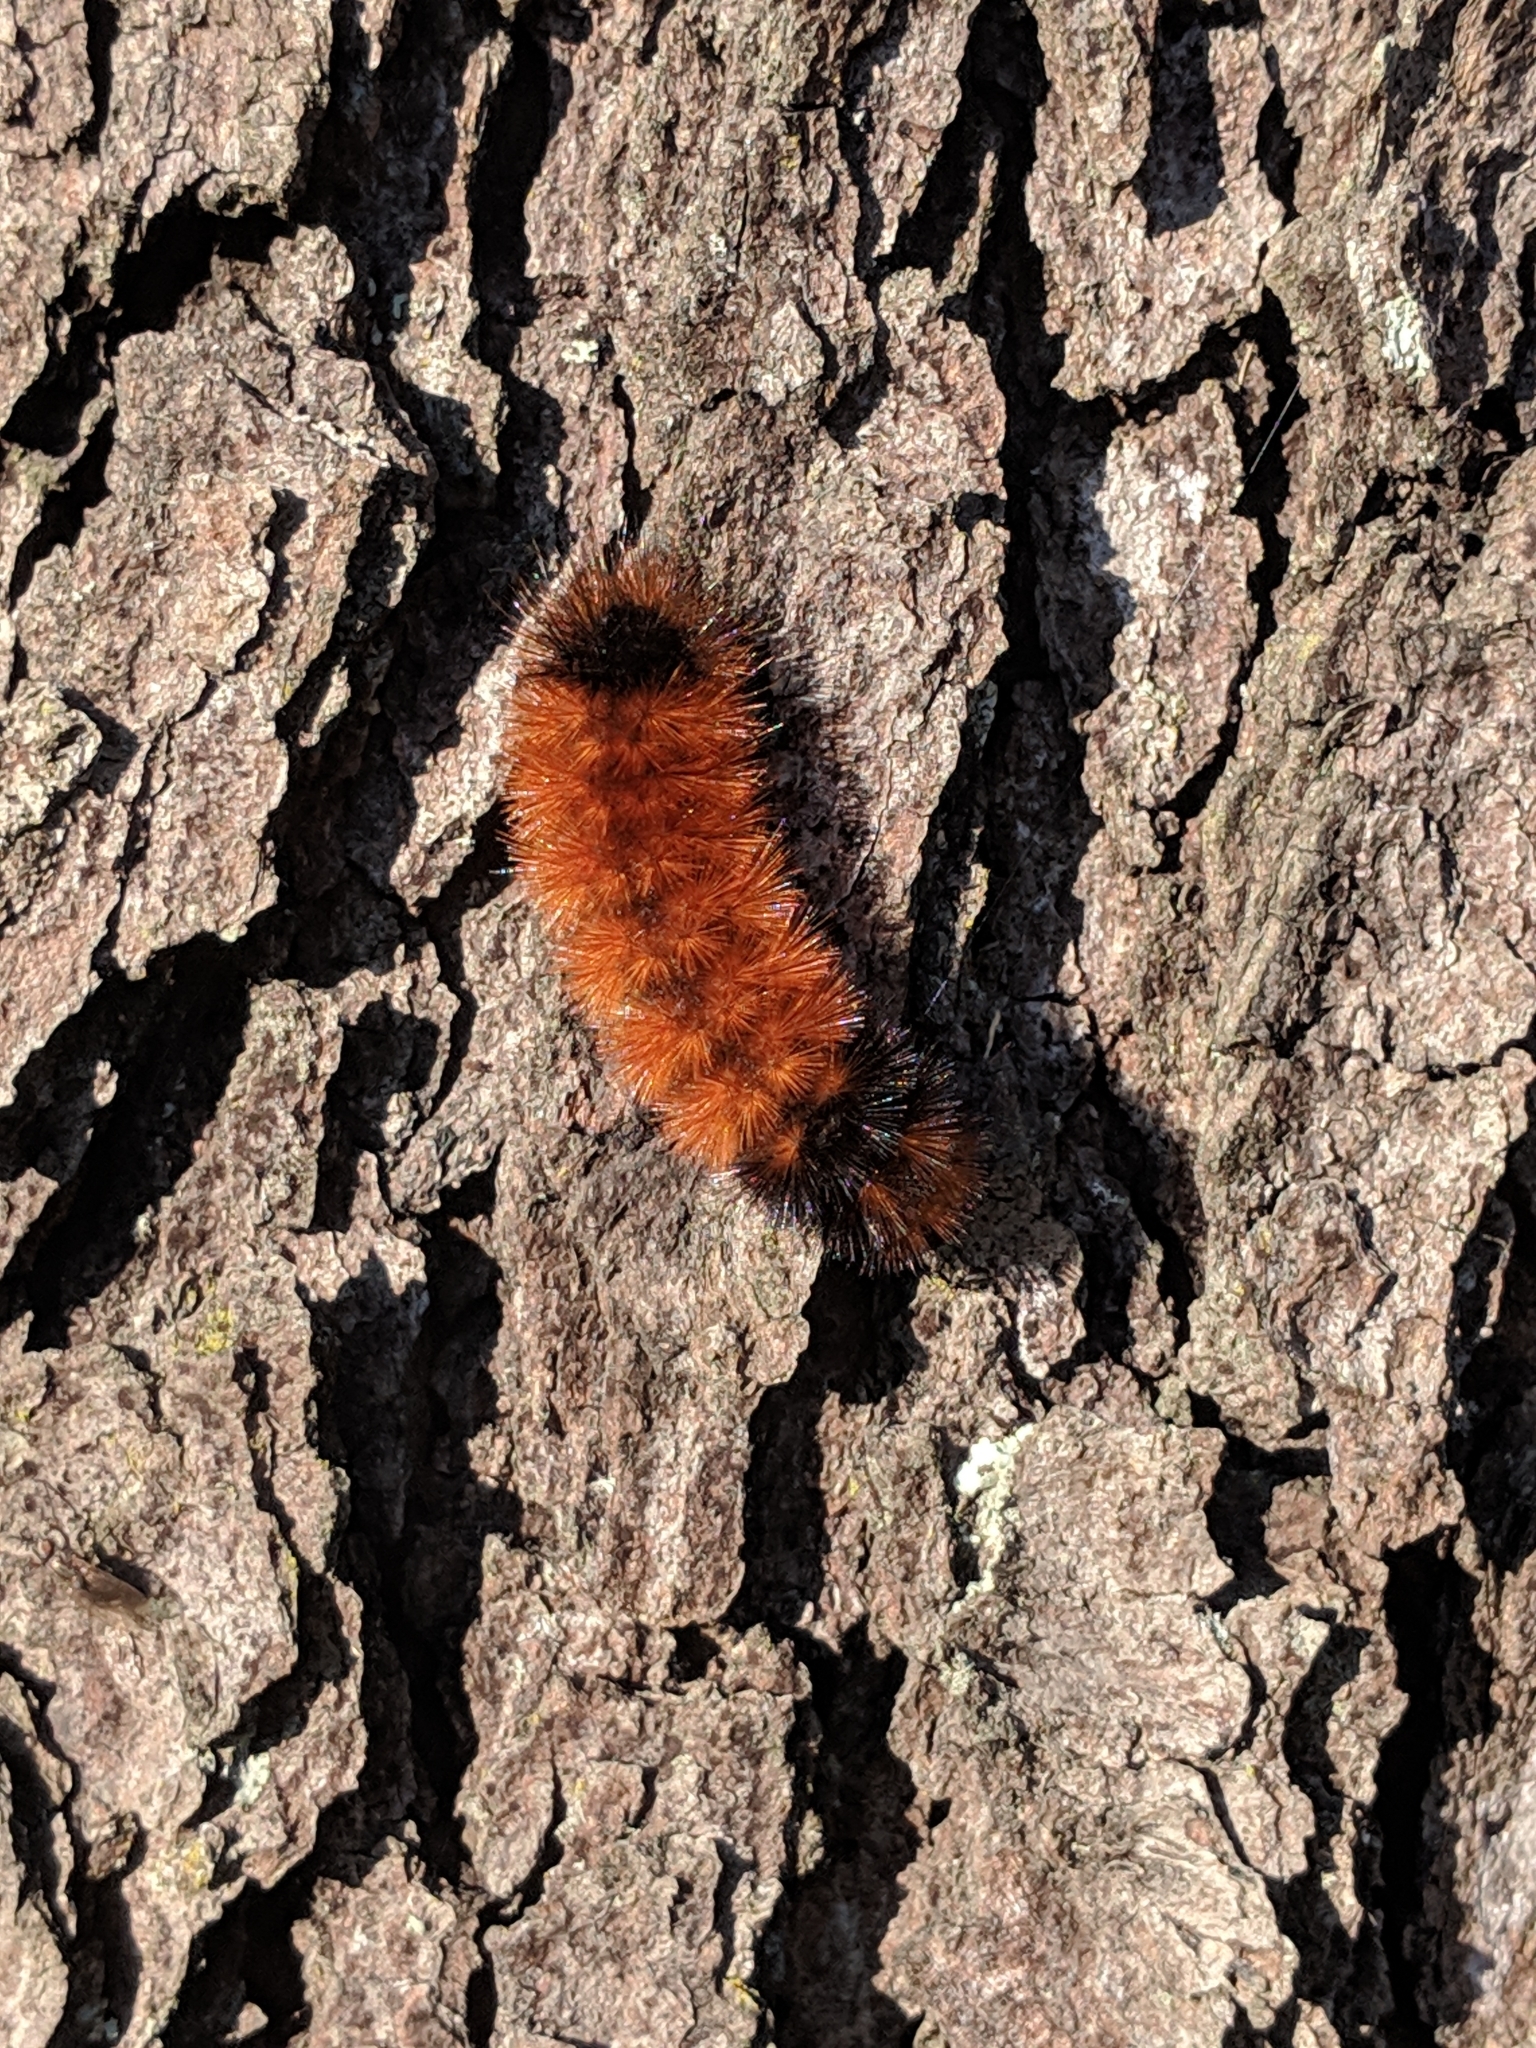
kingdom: Animalia
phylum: Arthropoda
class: Insecta
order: Lepidoptera
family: Erebidae
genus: Pyrrharctia
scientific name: Pyrrharctia isabella
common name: Isabella tiger moth
